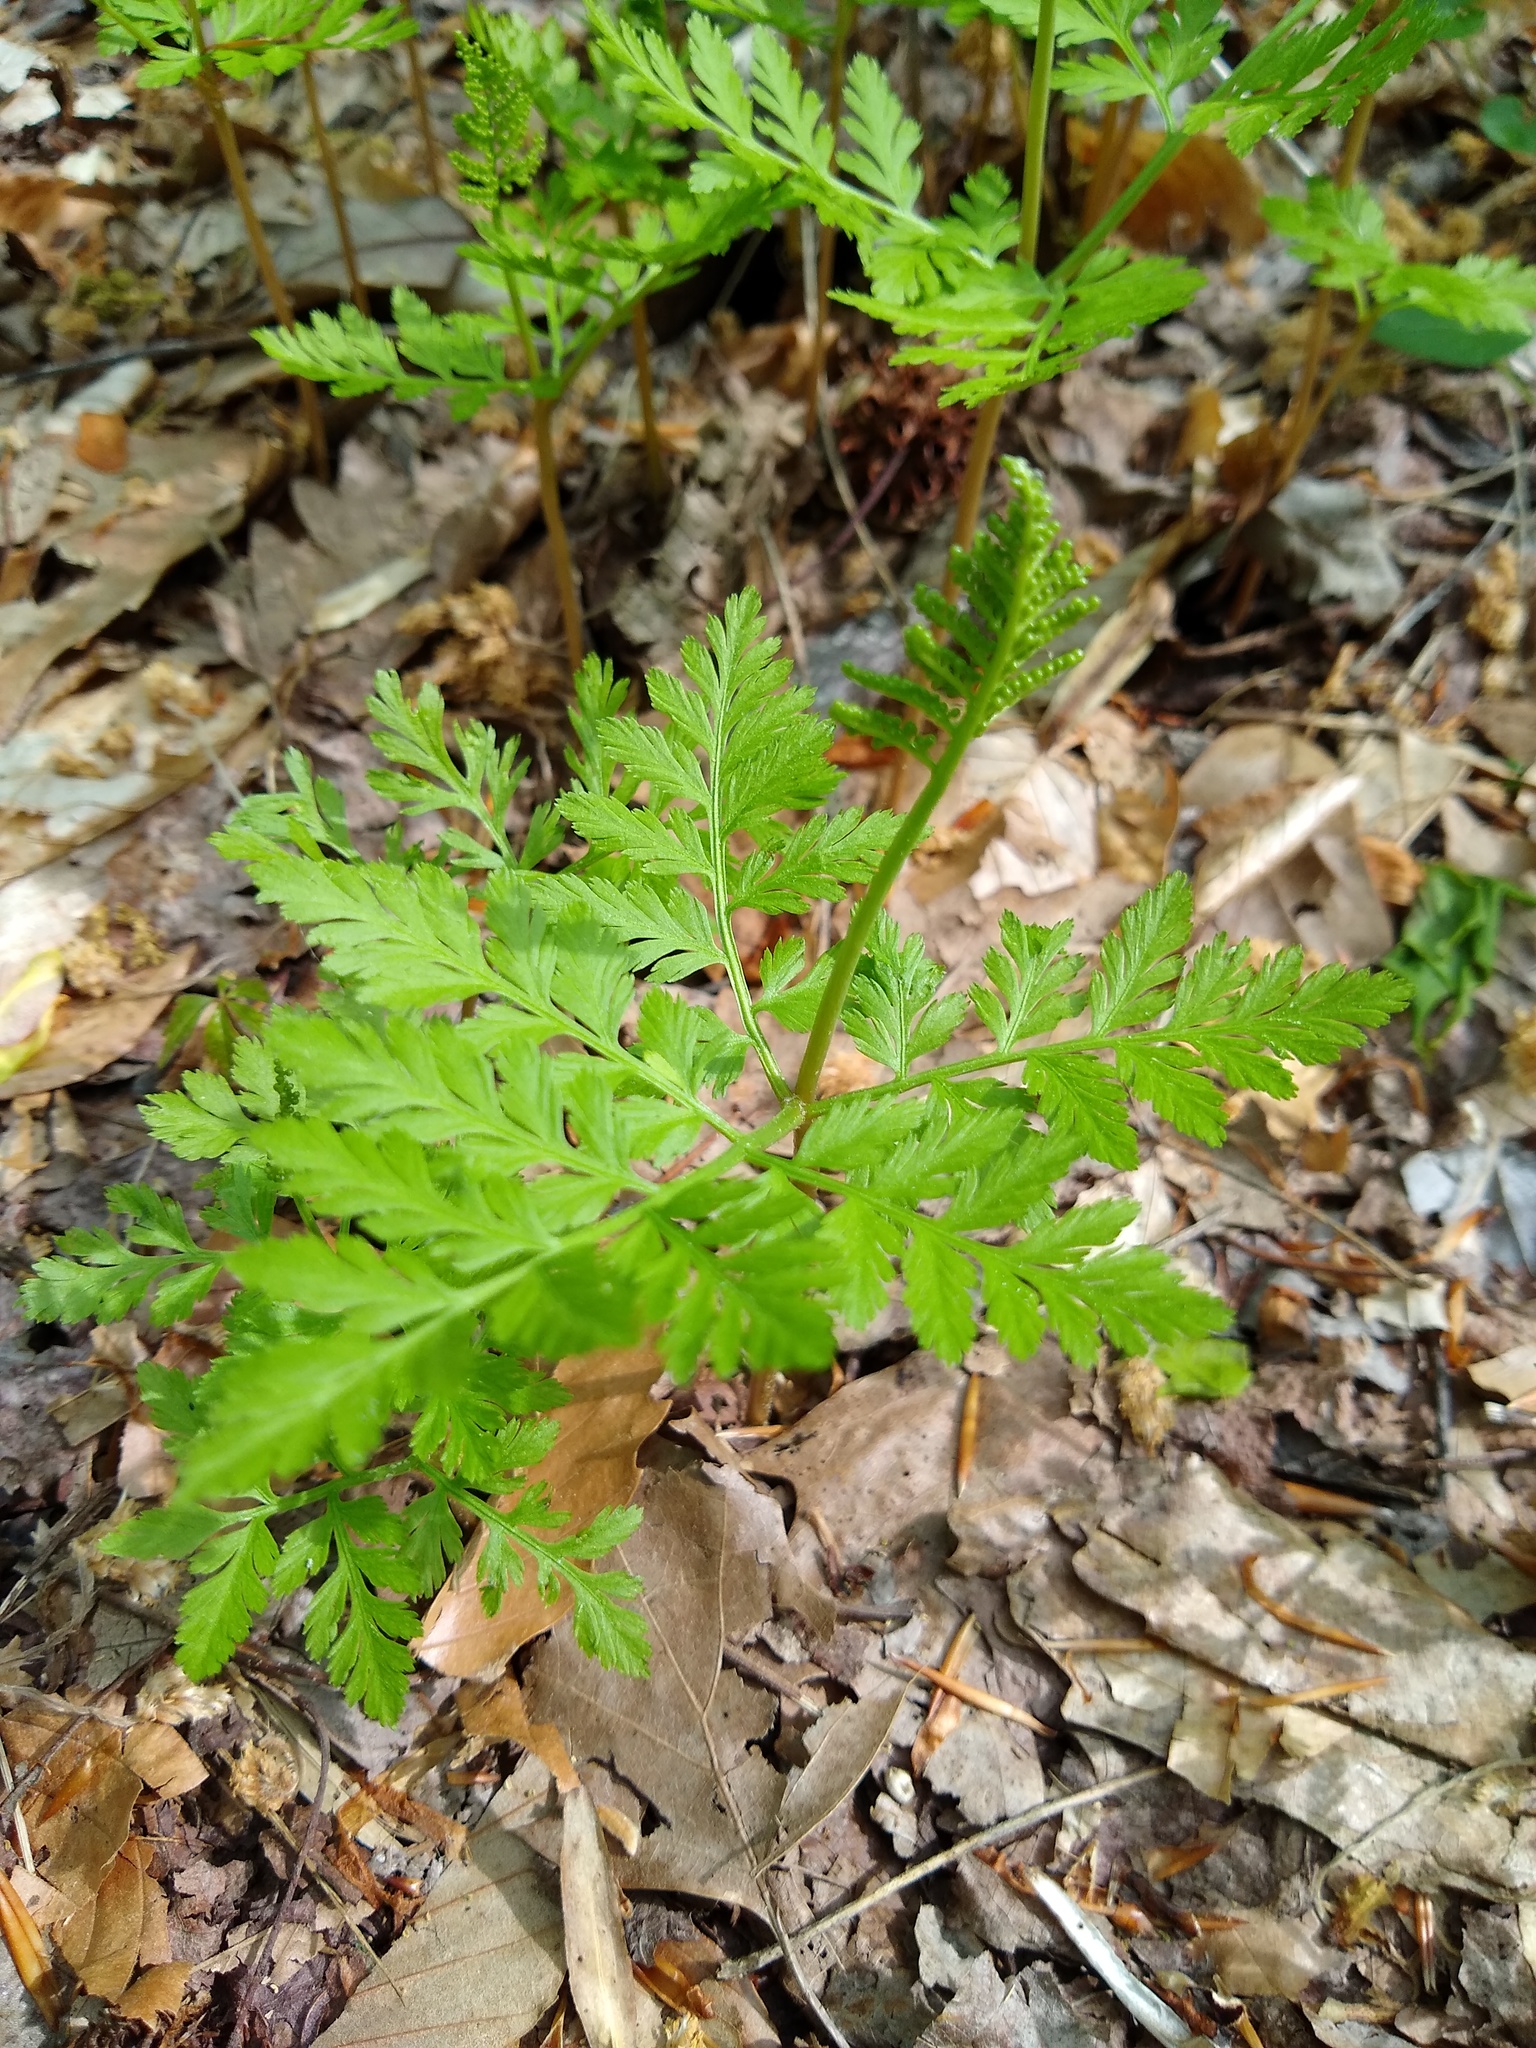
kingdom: Plantae
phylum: Tracheophyta
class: Polypodiopsida
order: Ophioglossales
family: Ophioglossaceae
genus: Botrypus
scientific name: Botrypus virginianus
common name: Common grapefern
